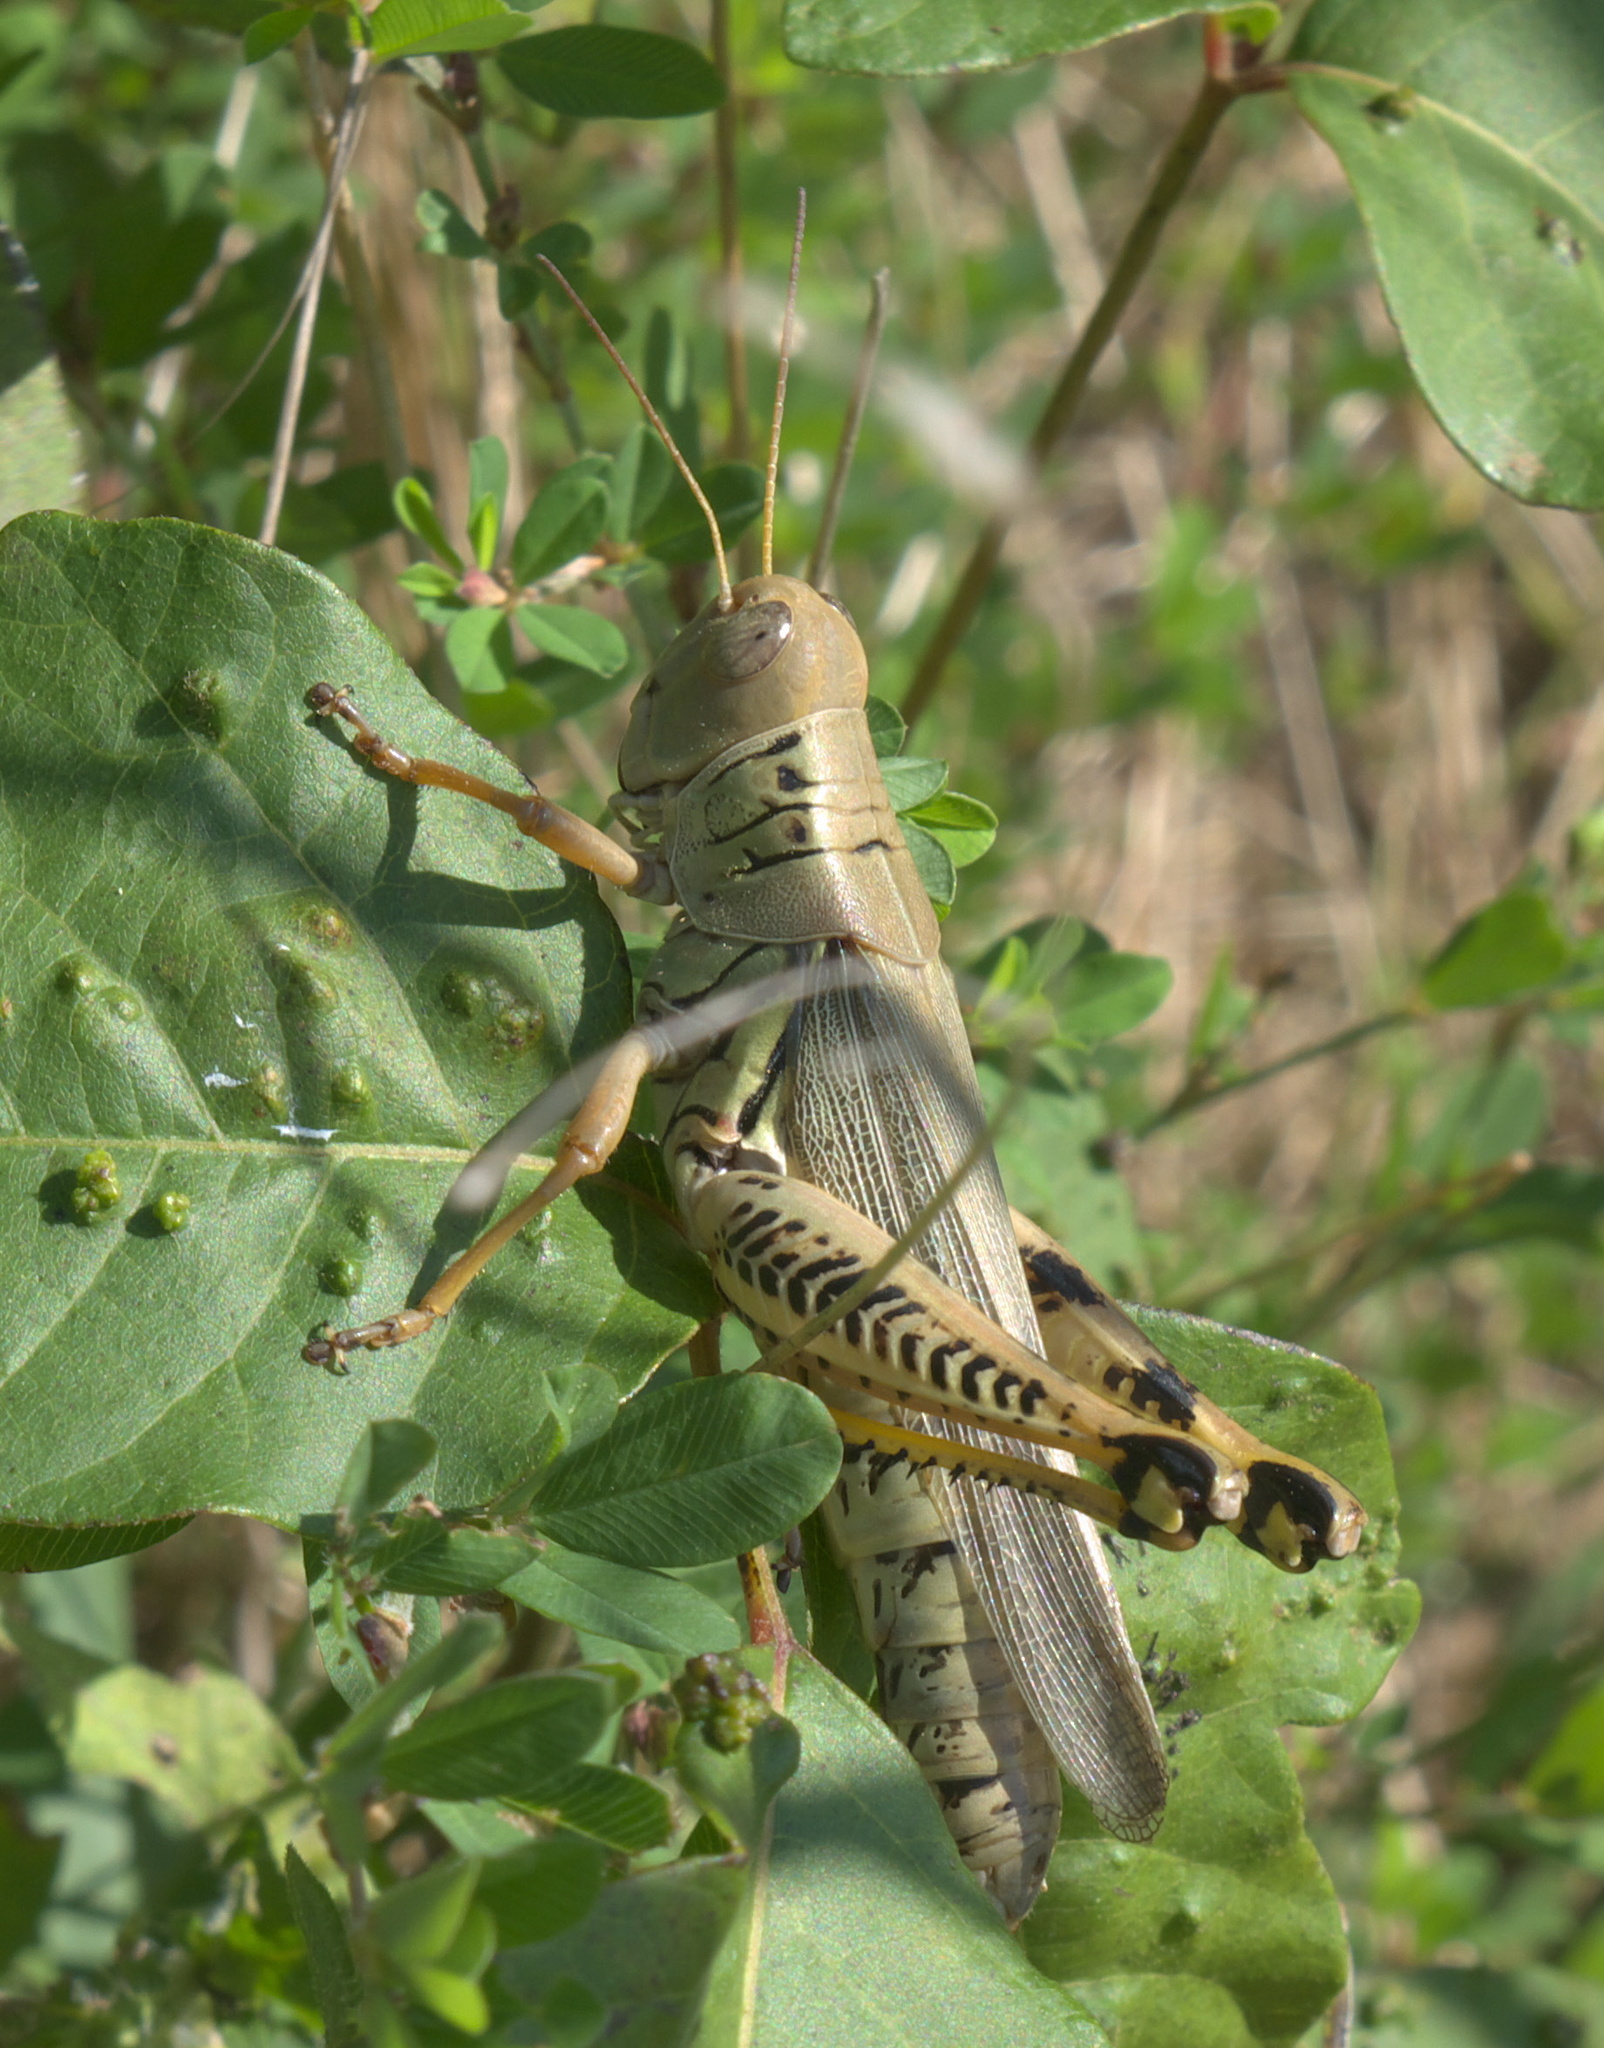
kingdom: Animalia
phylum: Arthropoda
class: Insecta
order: Orthoptera
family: Acrididae
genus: Melanoplus
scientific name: Melanoplus differentialis
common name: Differential grasshopper
